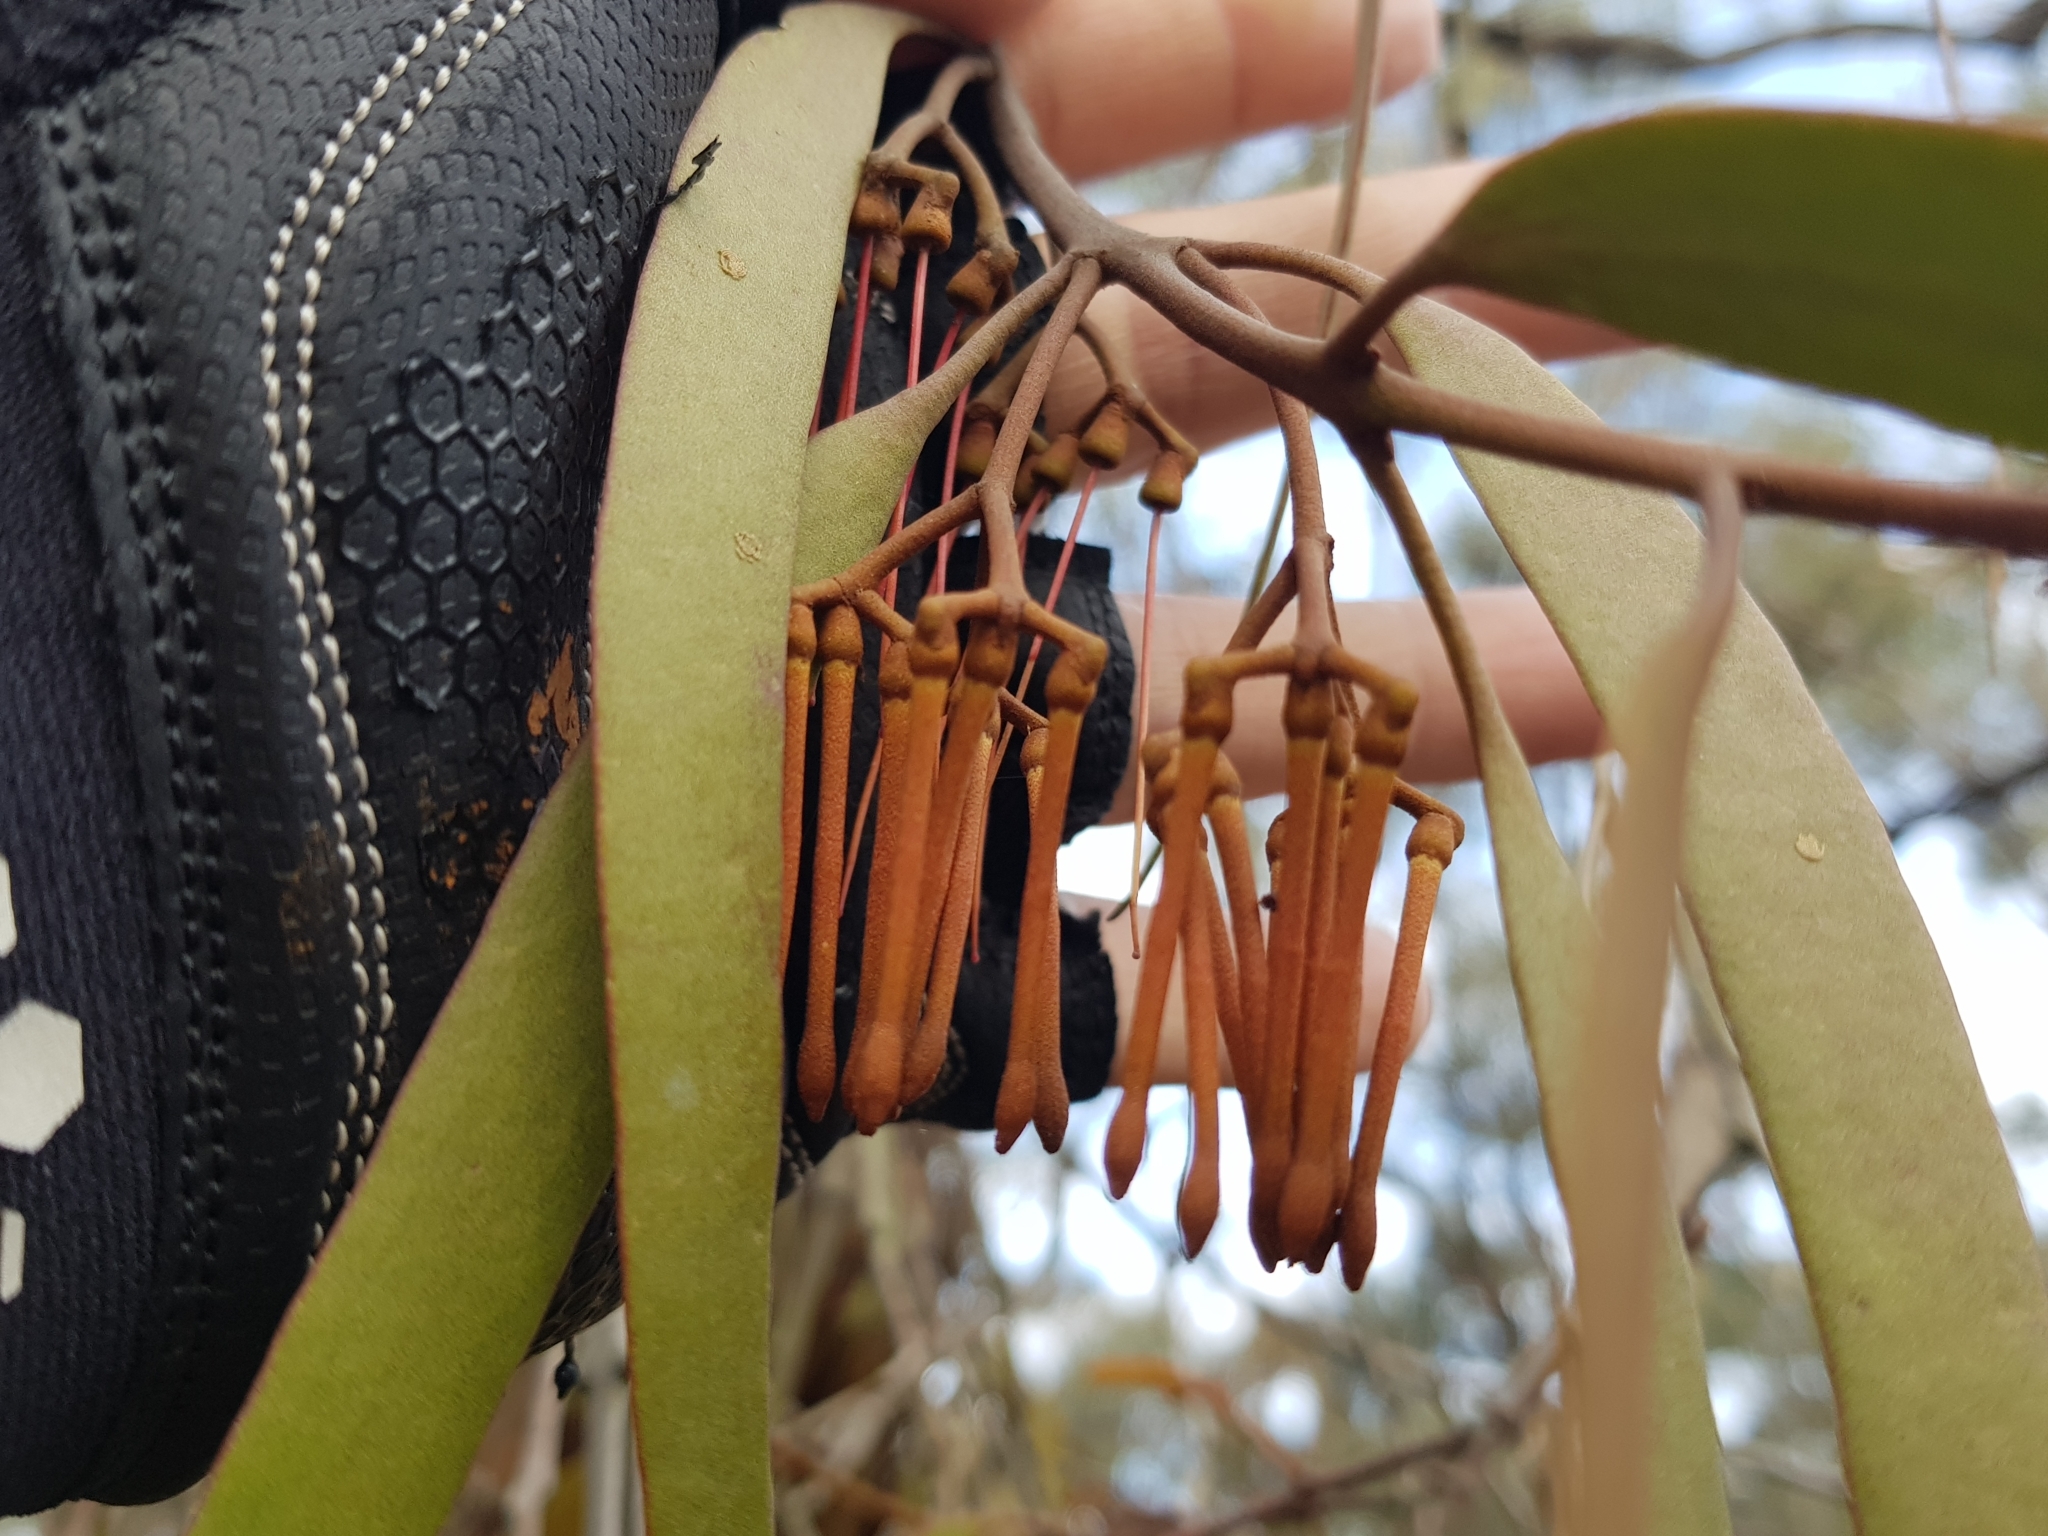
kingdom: Plantae
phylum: Tracheophyta
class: Magnoliopsida
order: Santalales
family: Loranthaceae
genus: Amyema
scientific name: Amyema pendula
